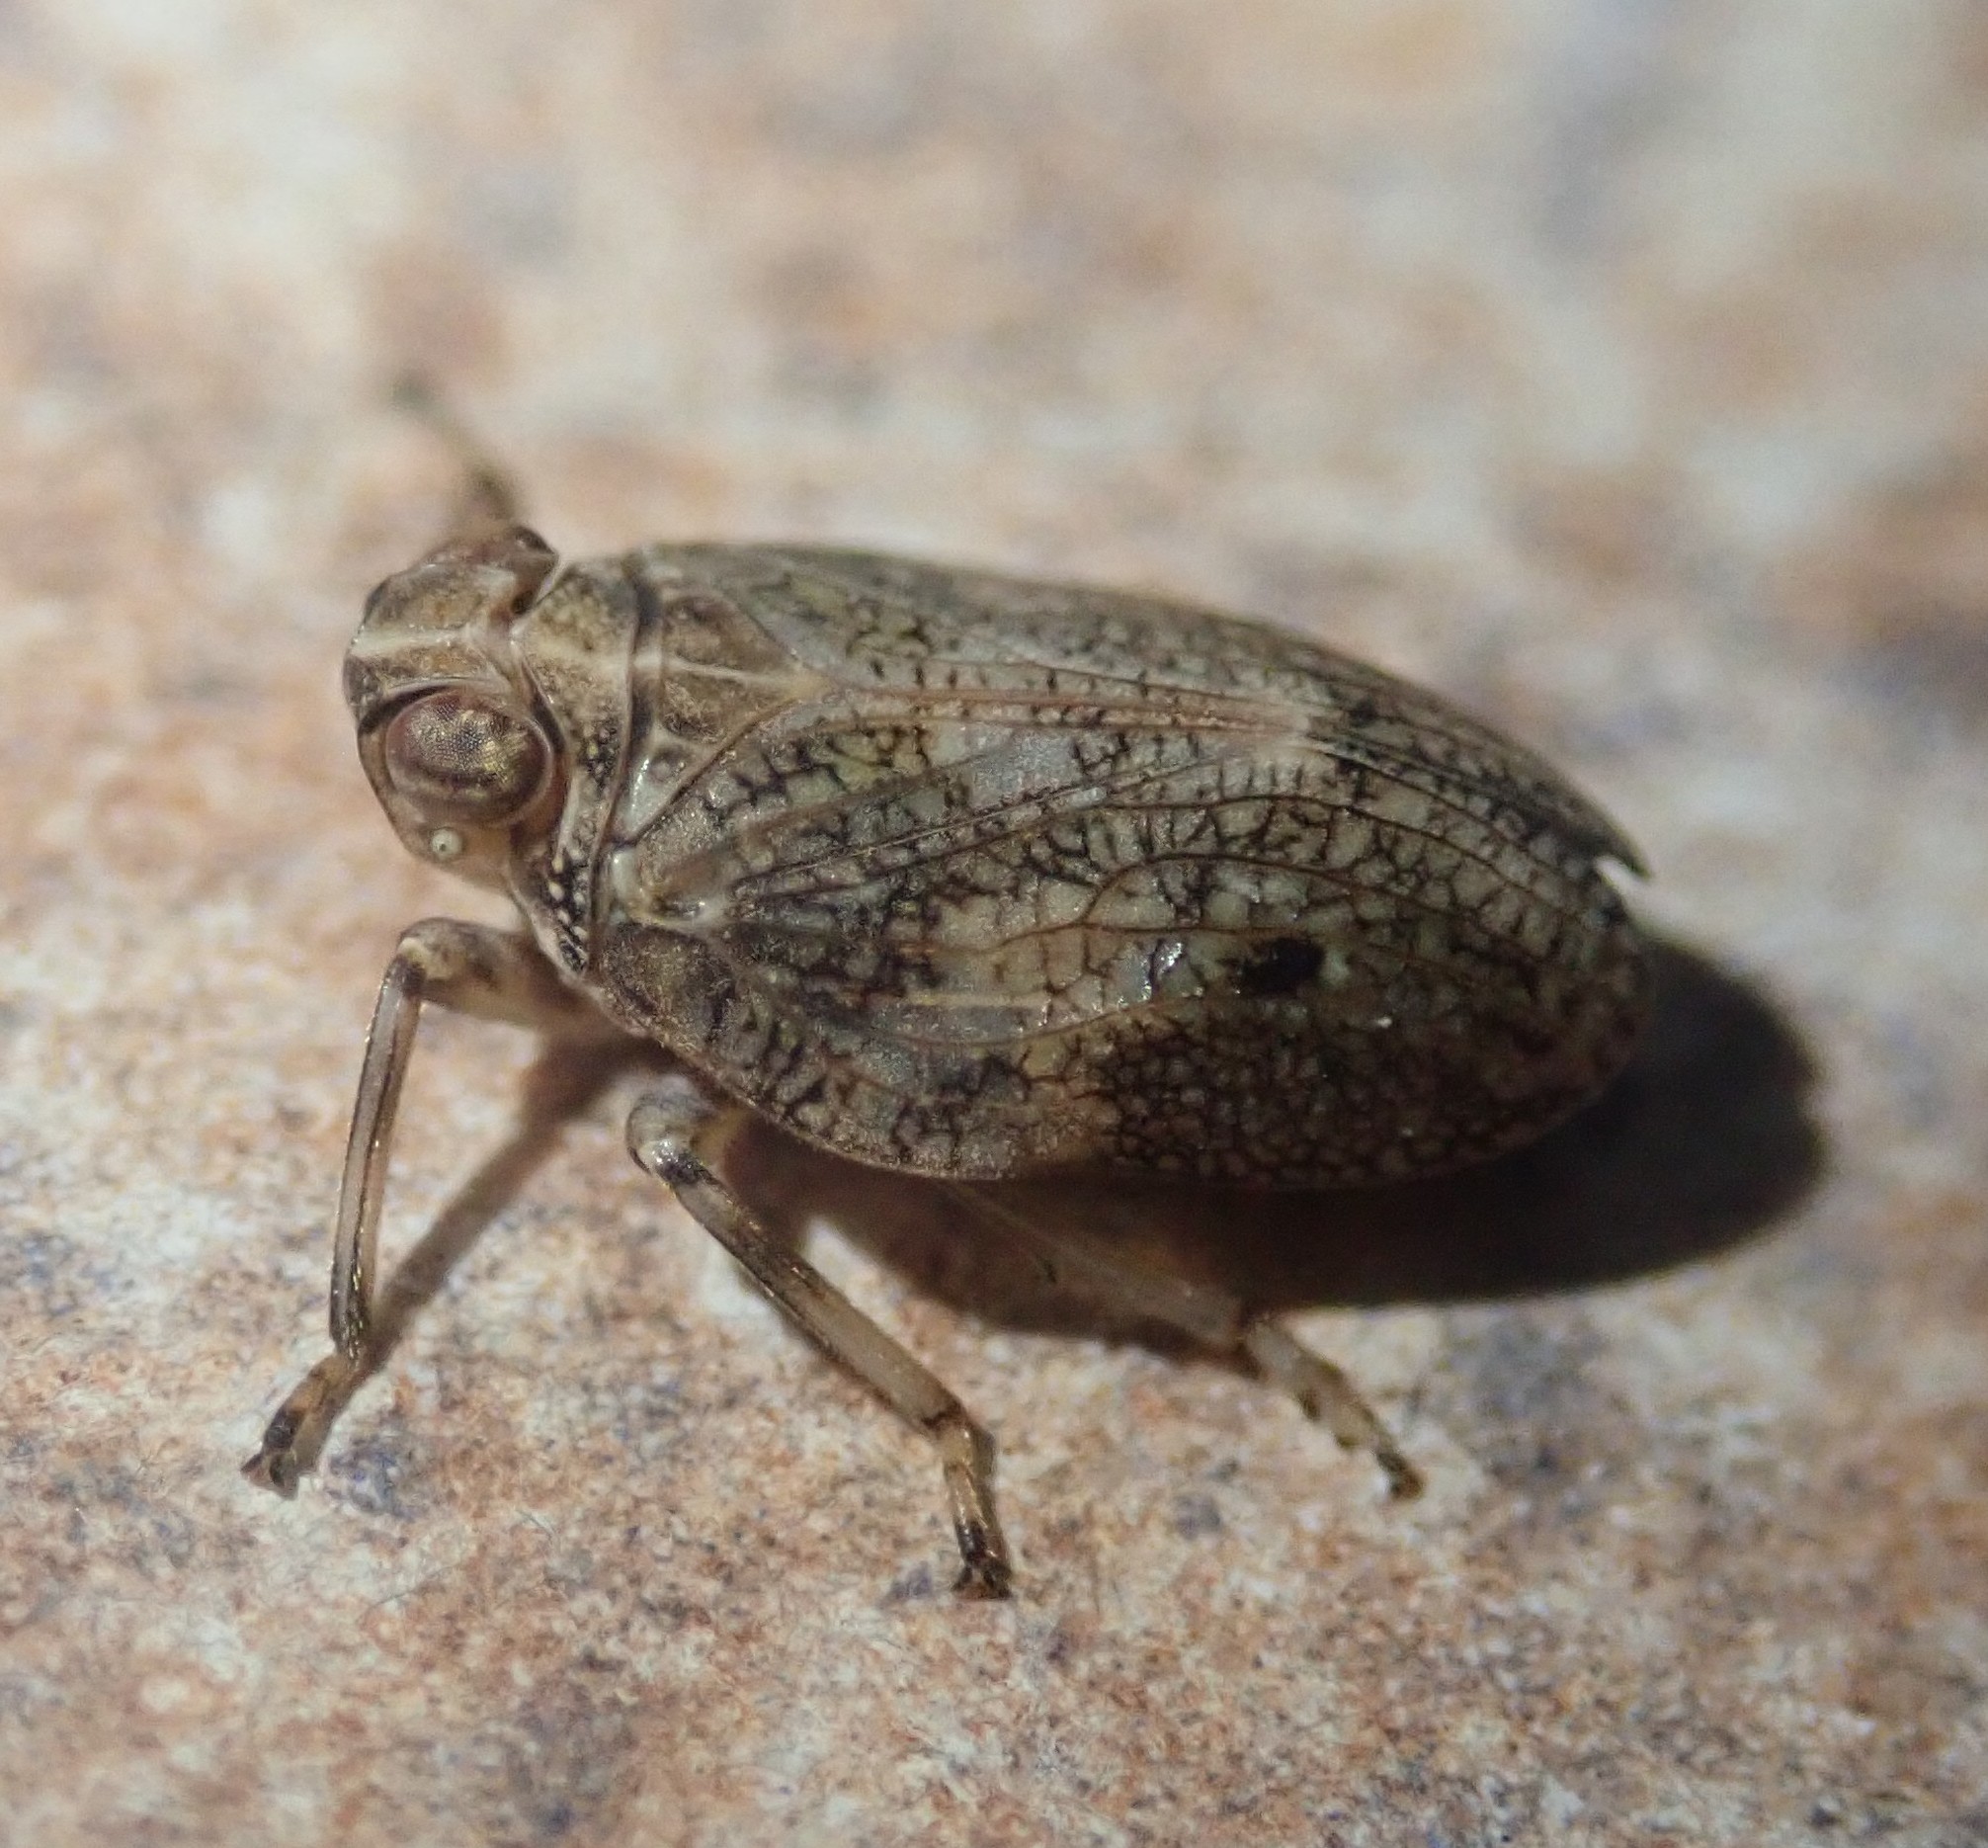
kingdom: Animalia
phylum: Arthropoda
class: Insecta
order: Hemiptera
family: Issidae
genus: Issus
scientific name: Issus coleoptratus
